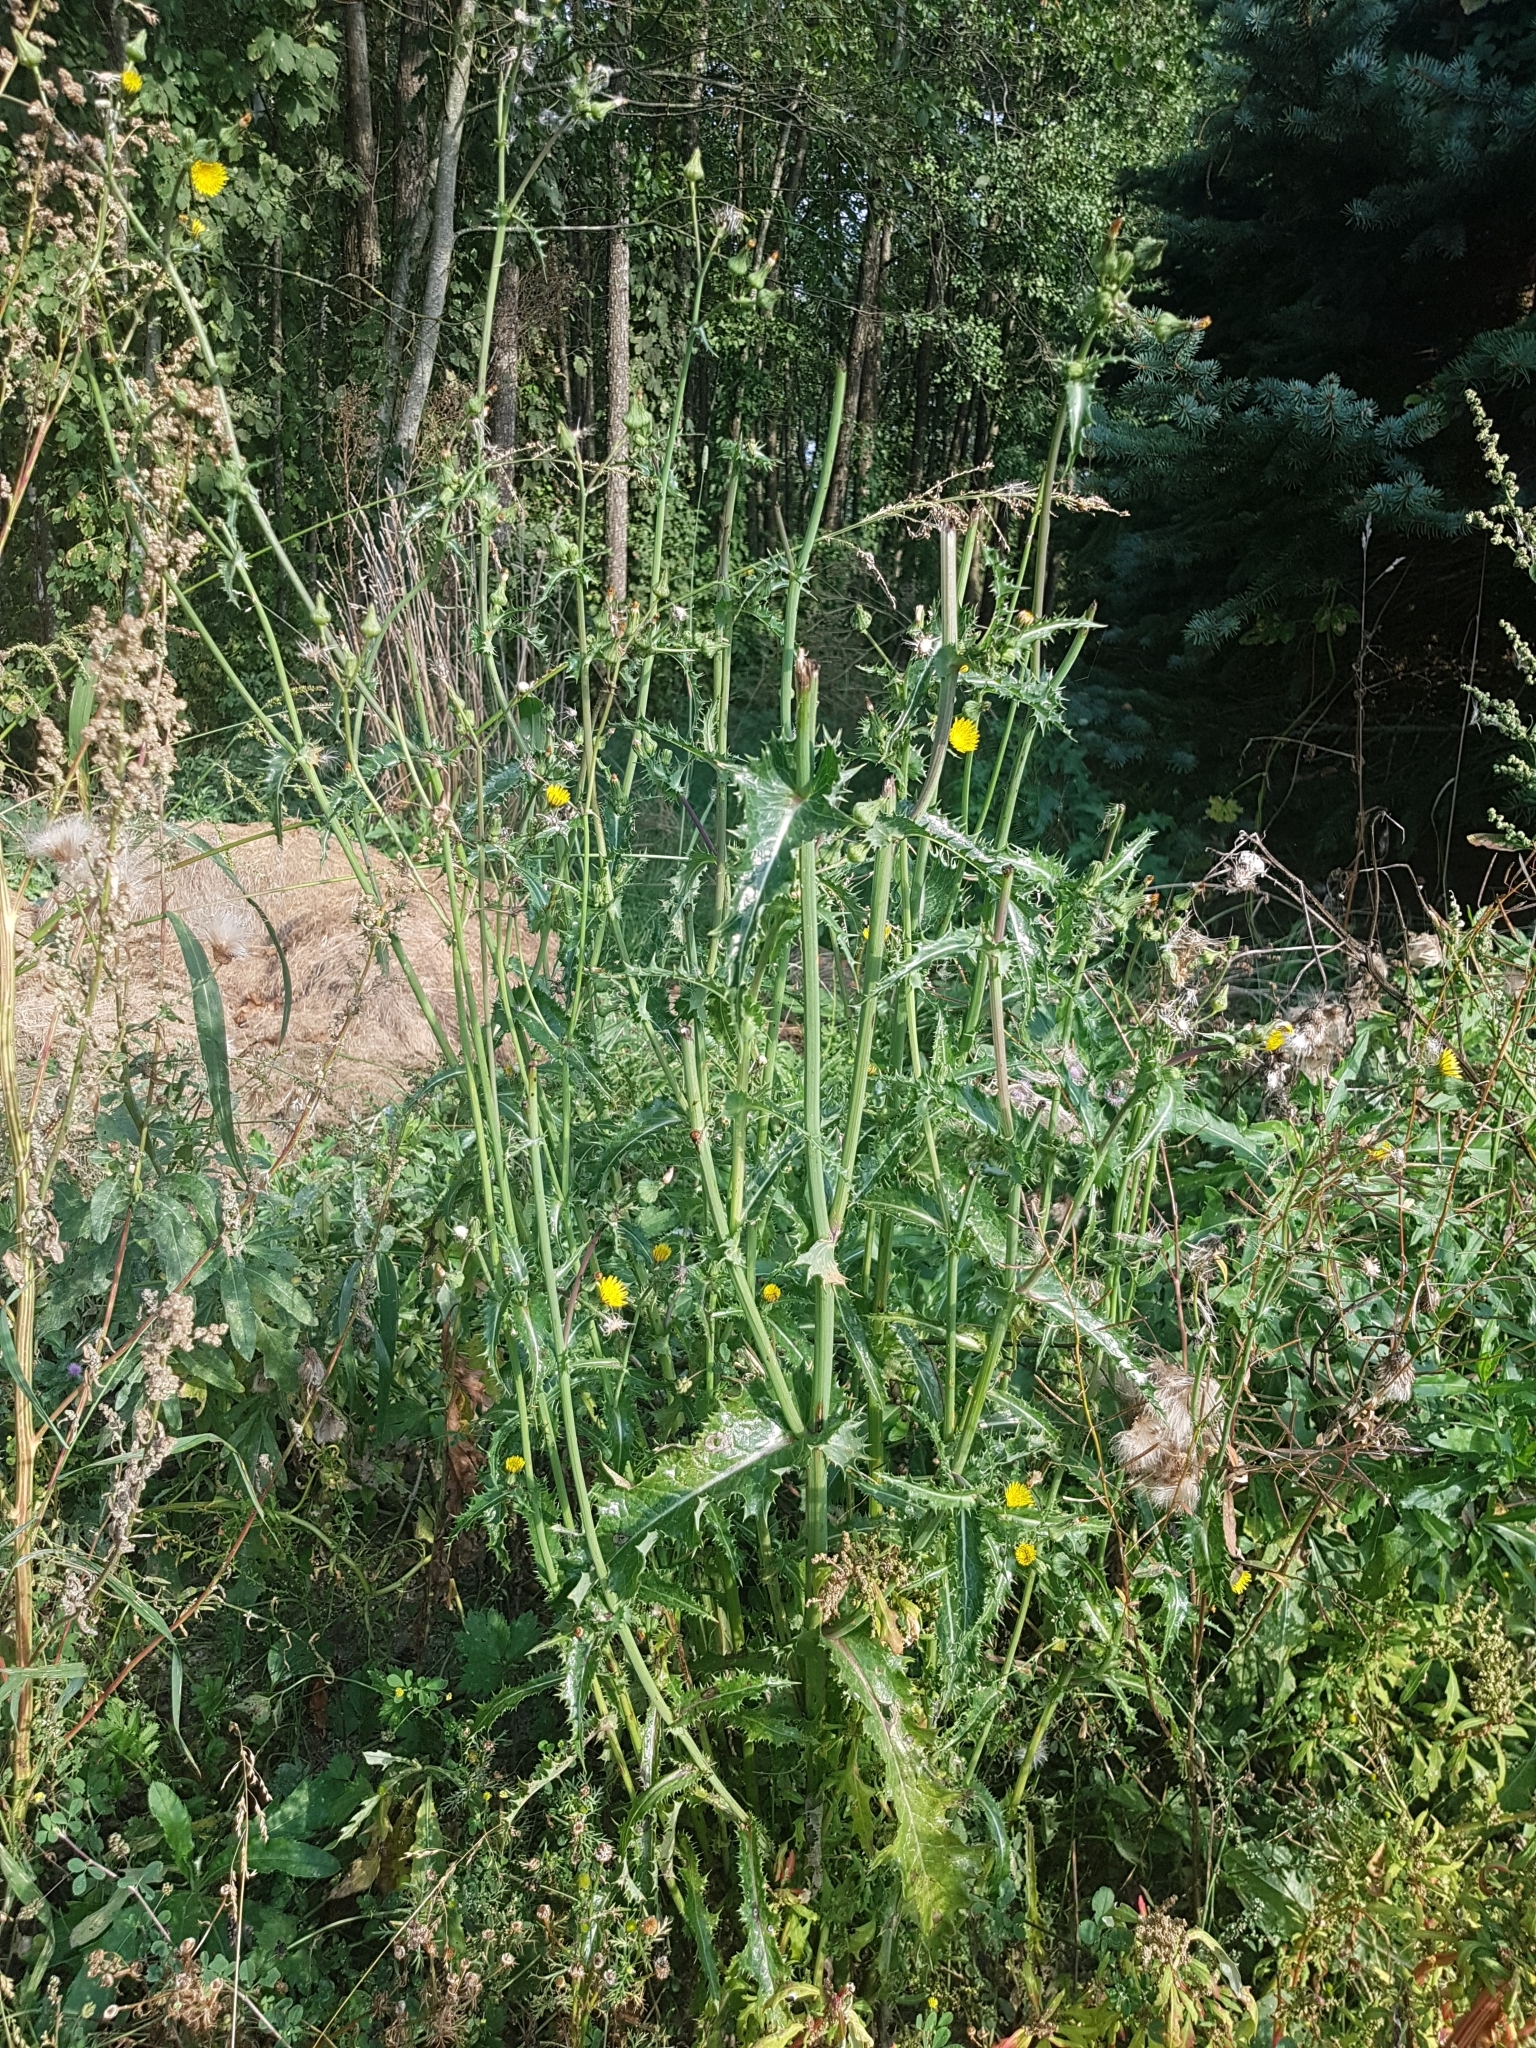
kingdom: Plantae
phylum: Tracheophyta
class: Magnoliopsida
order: Asterales
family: Asteraceae
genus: Sonchus
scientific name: Sonchus asper
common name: Prickly sow-thistle
